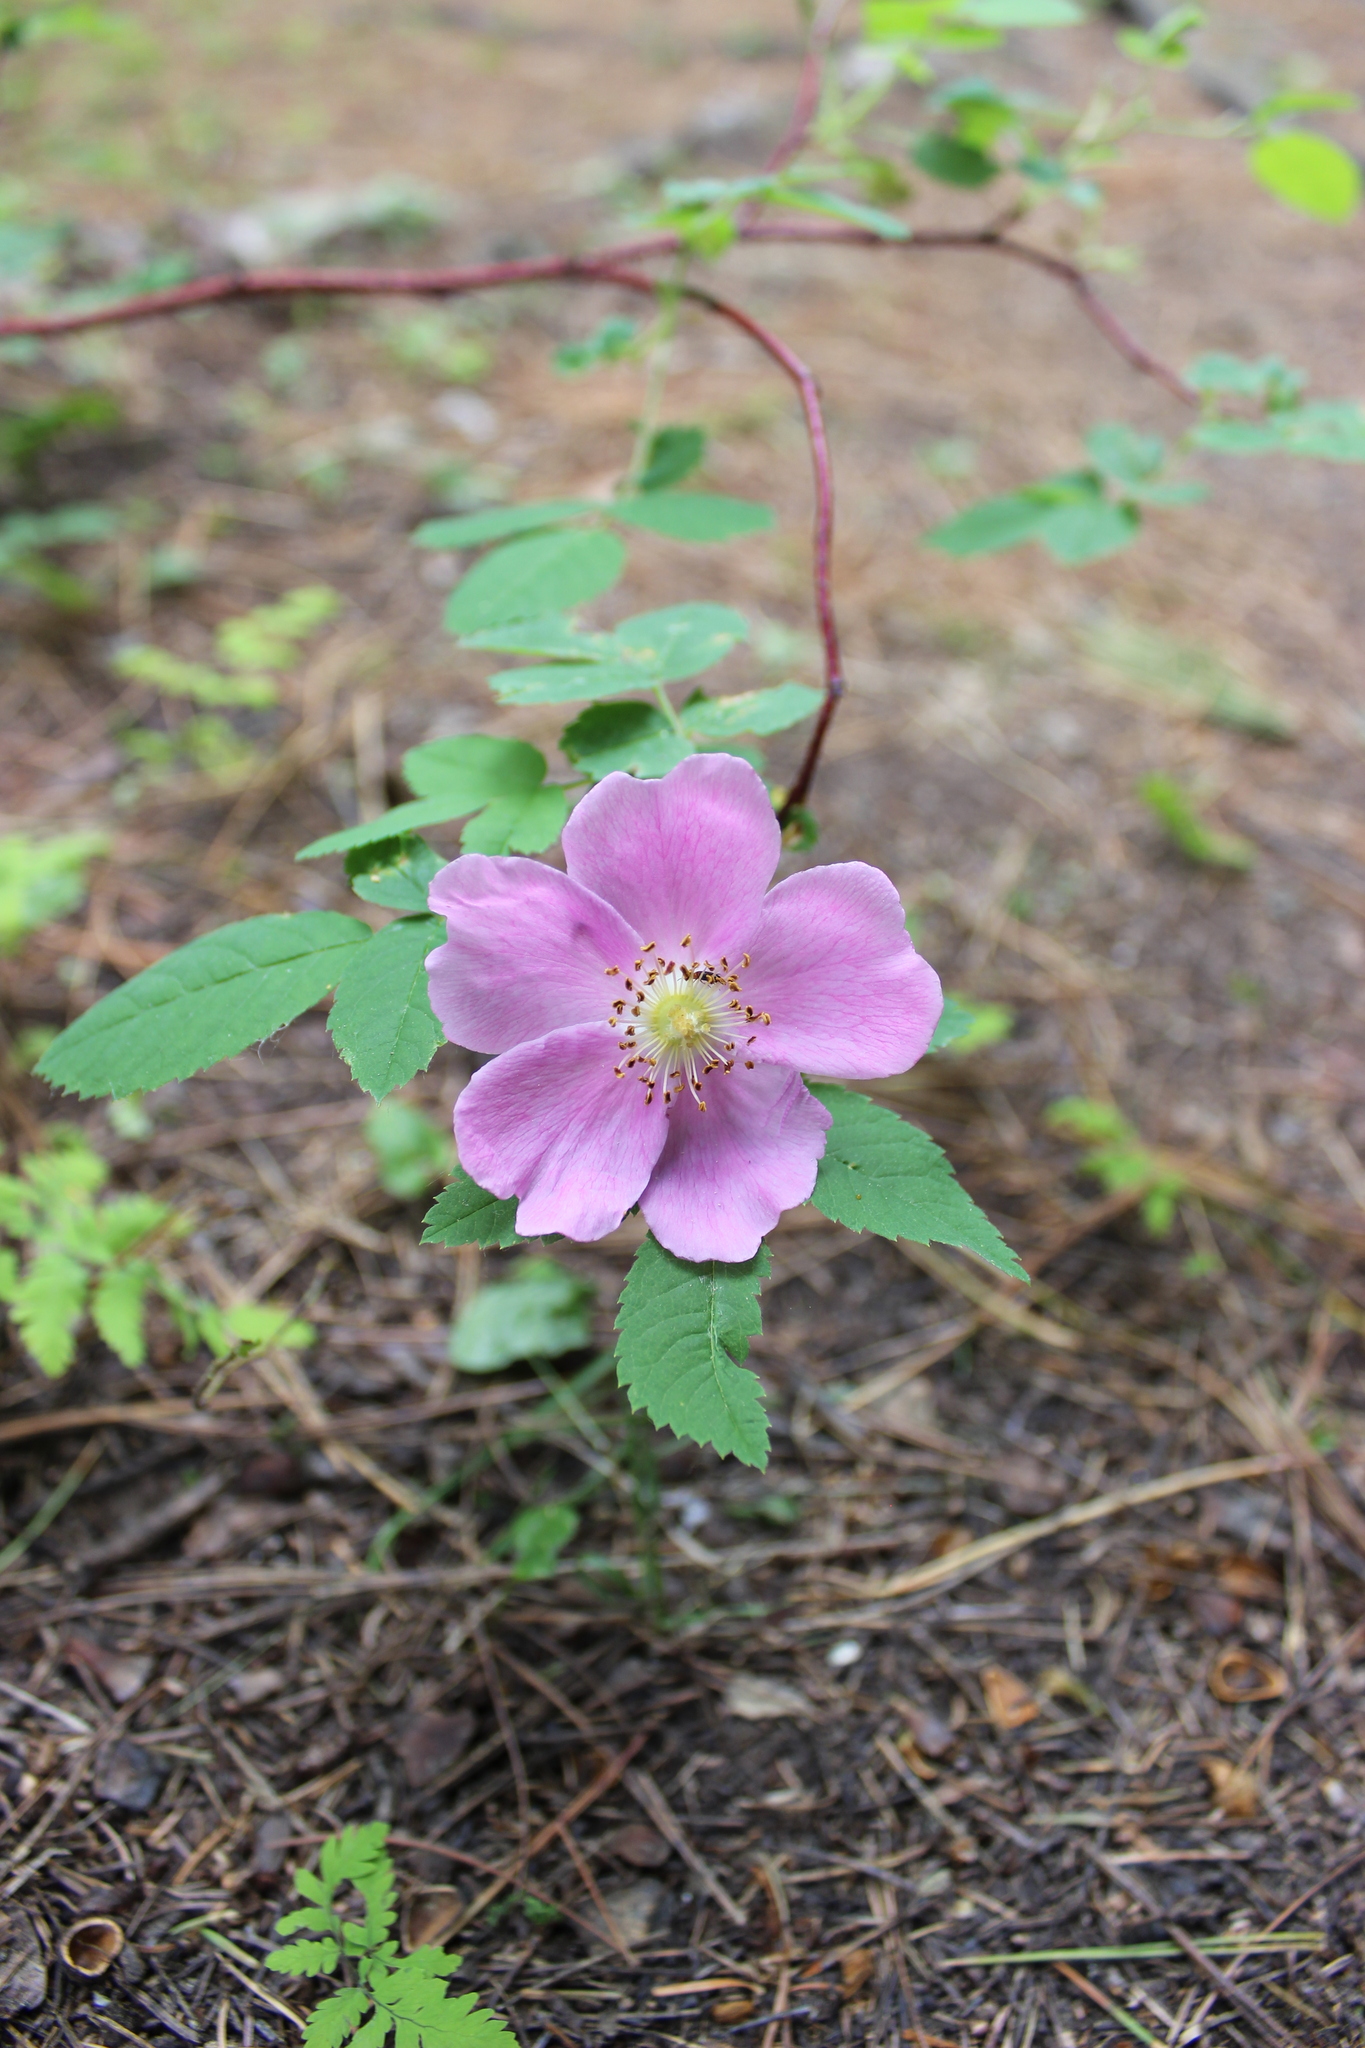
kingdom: Plantae
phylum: Tracheophyta
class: Magnoliopsida
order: Rosales
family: Rosaceae
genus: Rosa
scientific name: Rosa acicularis
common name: Prickly rose
